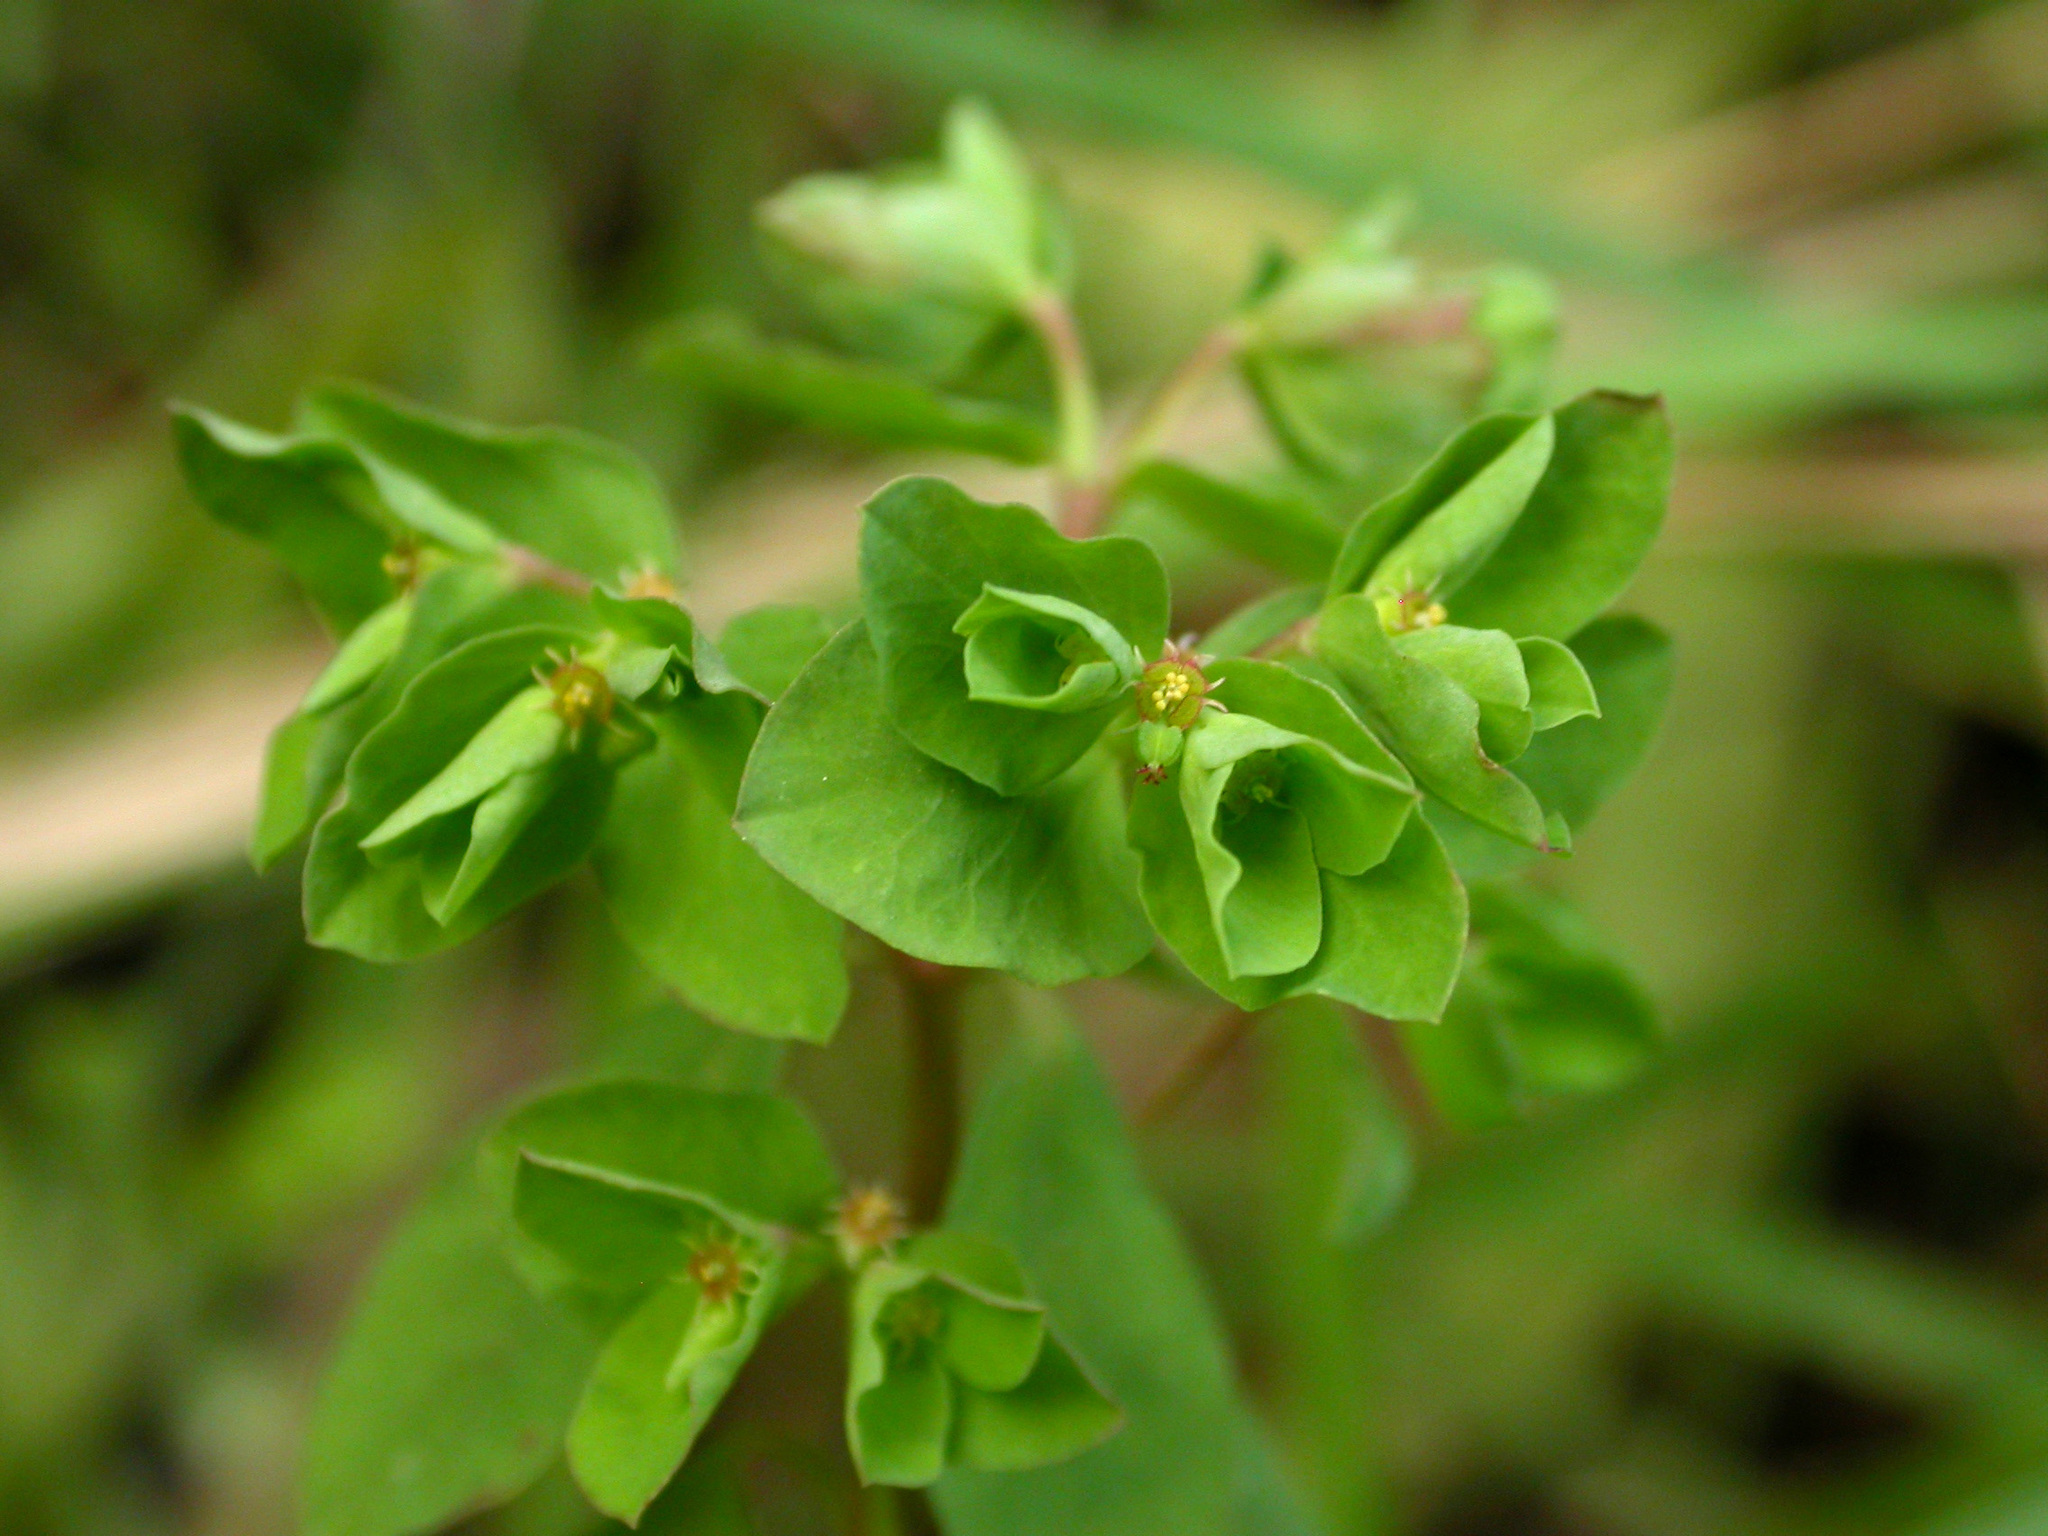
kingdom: Plantae
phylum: Tracheophyta
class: Magnoliopsida
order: Malpighiales
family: Euphorbiaceae
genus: Euphorbia
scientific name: Euphorbia peplus
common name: Petty spurge
